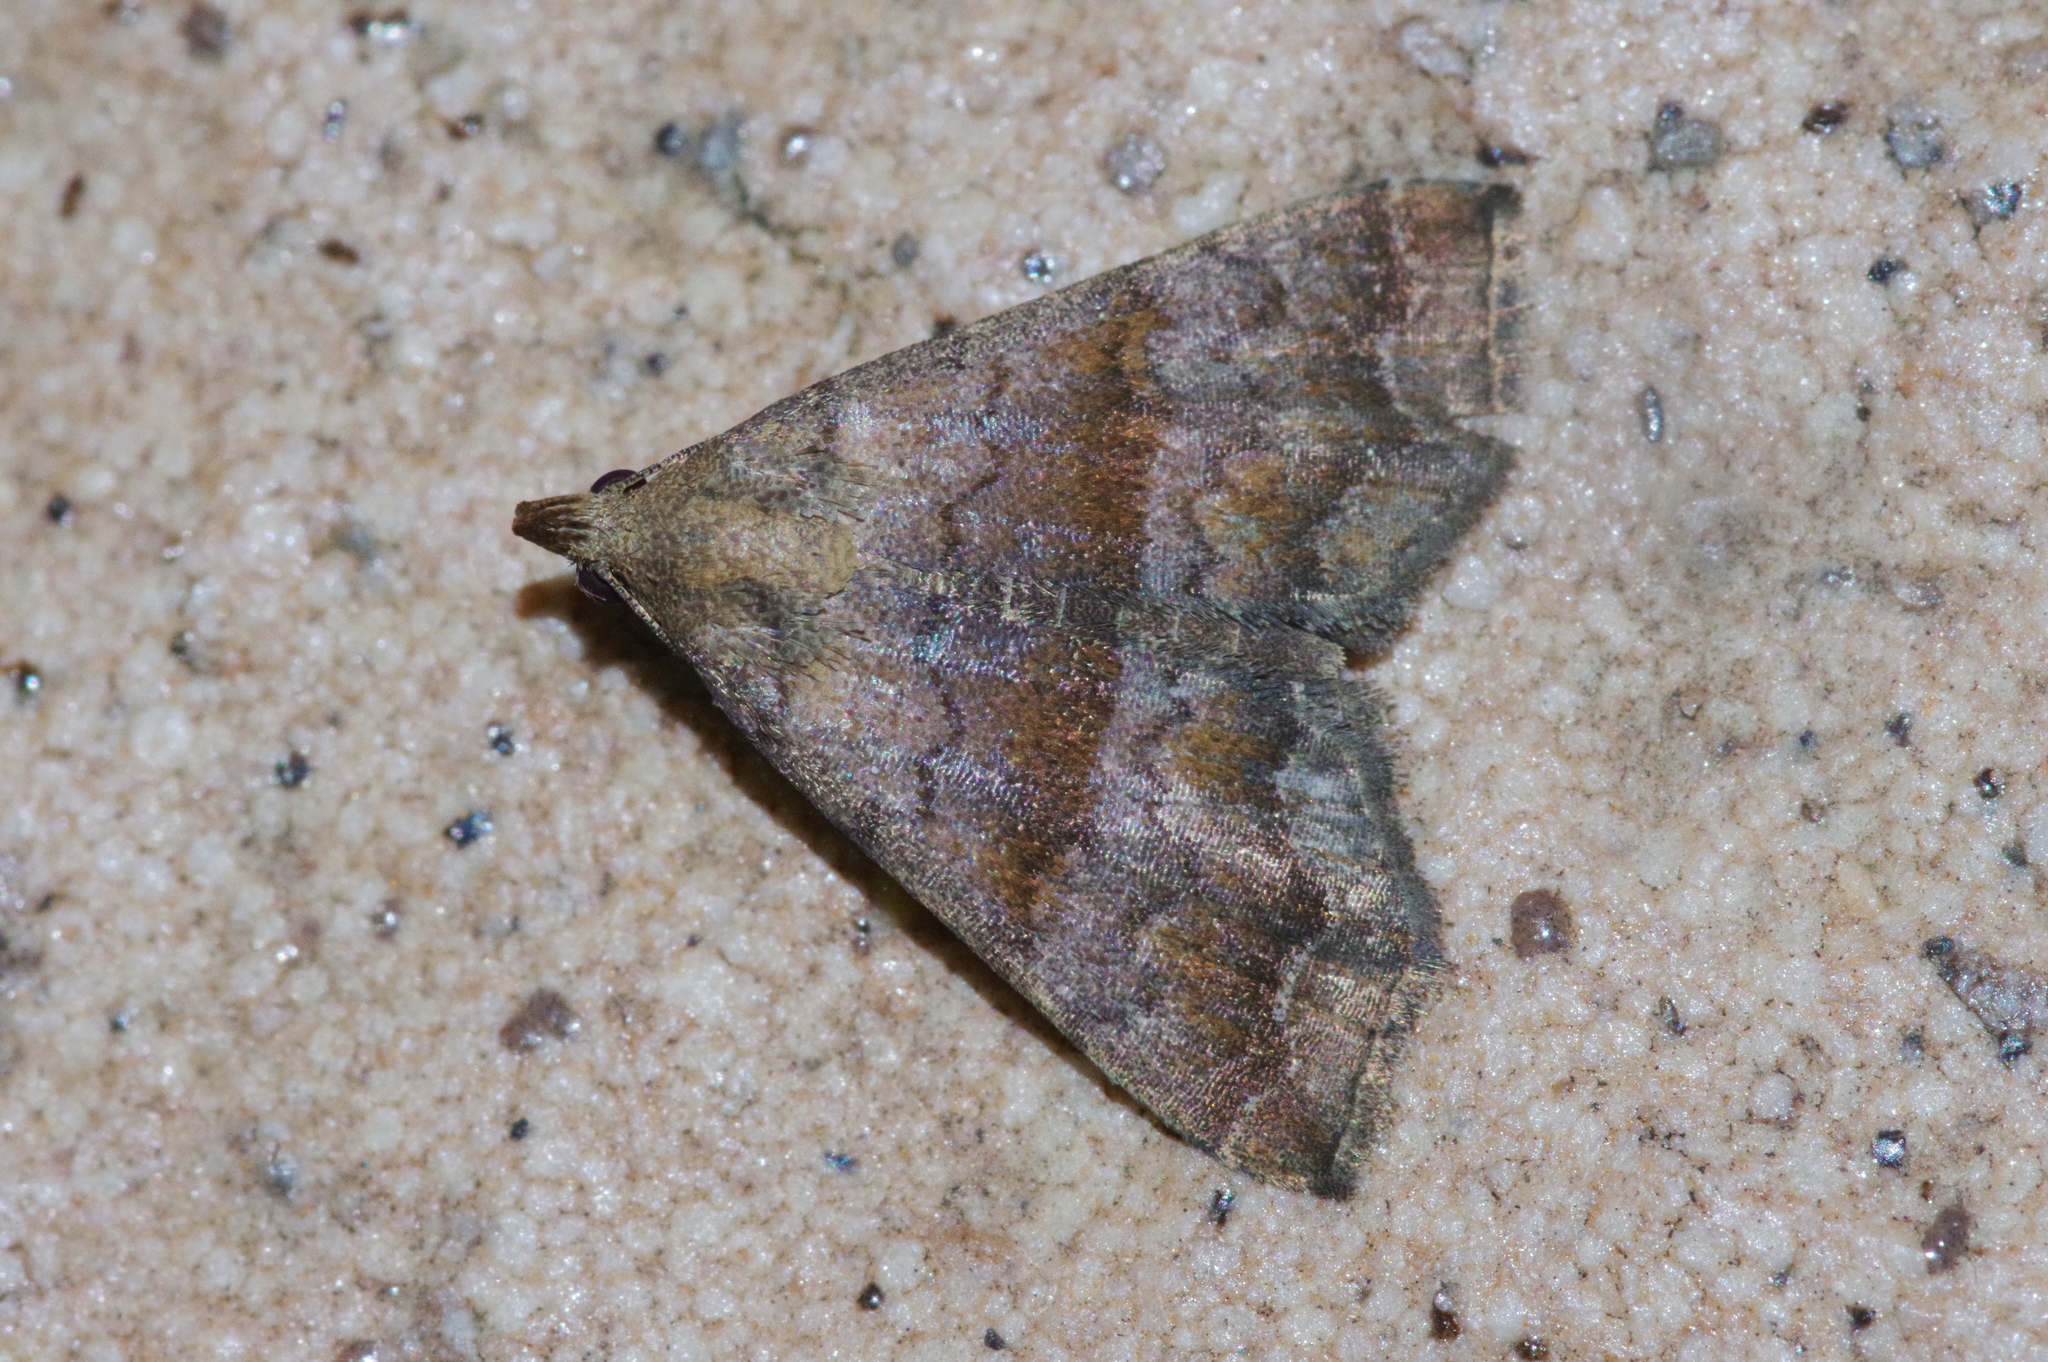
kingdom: Animalia
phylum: Arthropoda
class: Insecta
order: Lepidoptera
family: Erebidae
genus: Polypogon
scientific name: Polypogon Hipoepa fractalis
